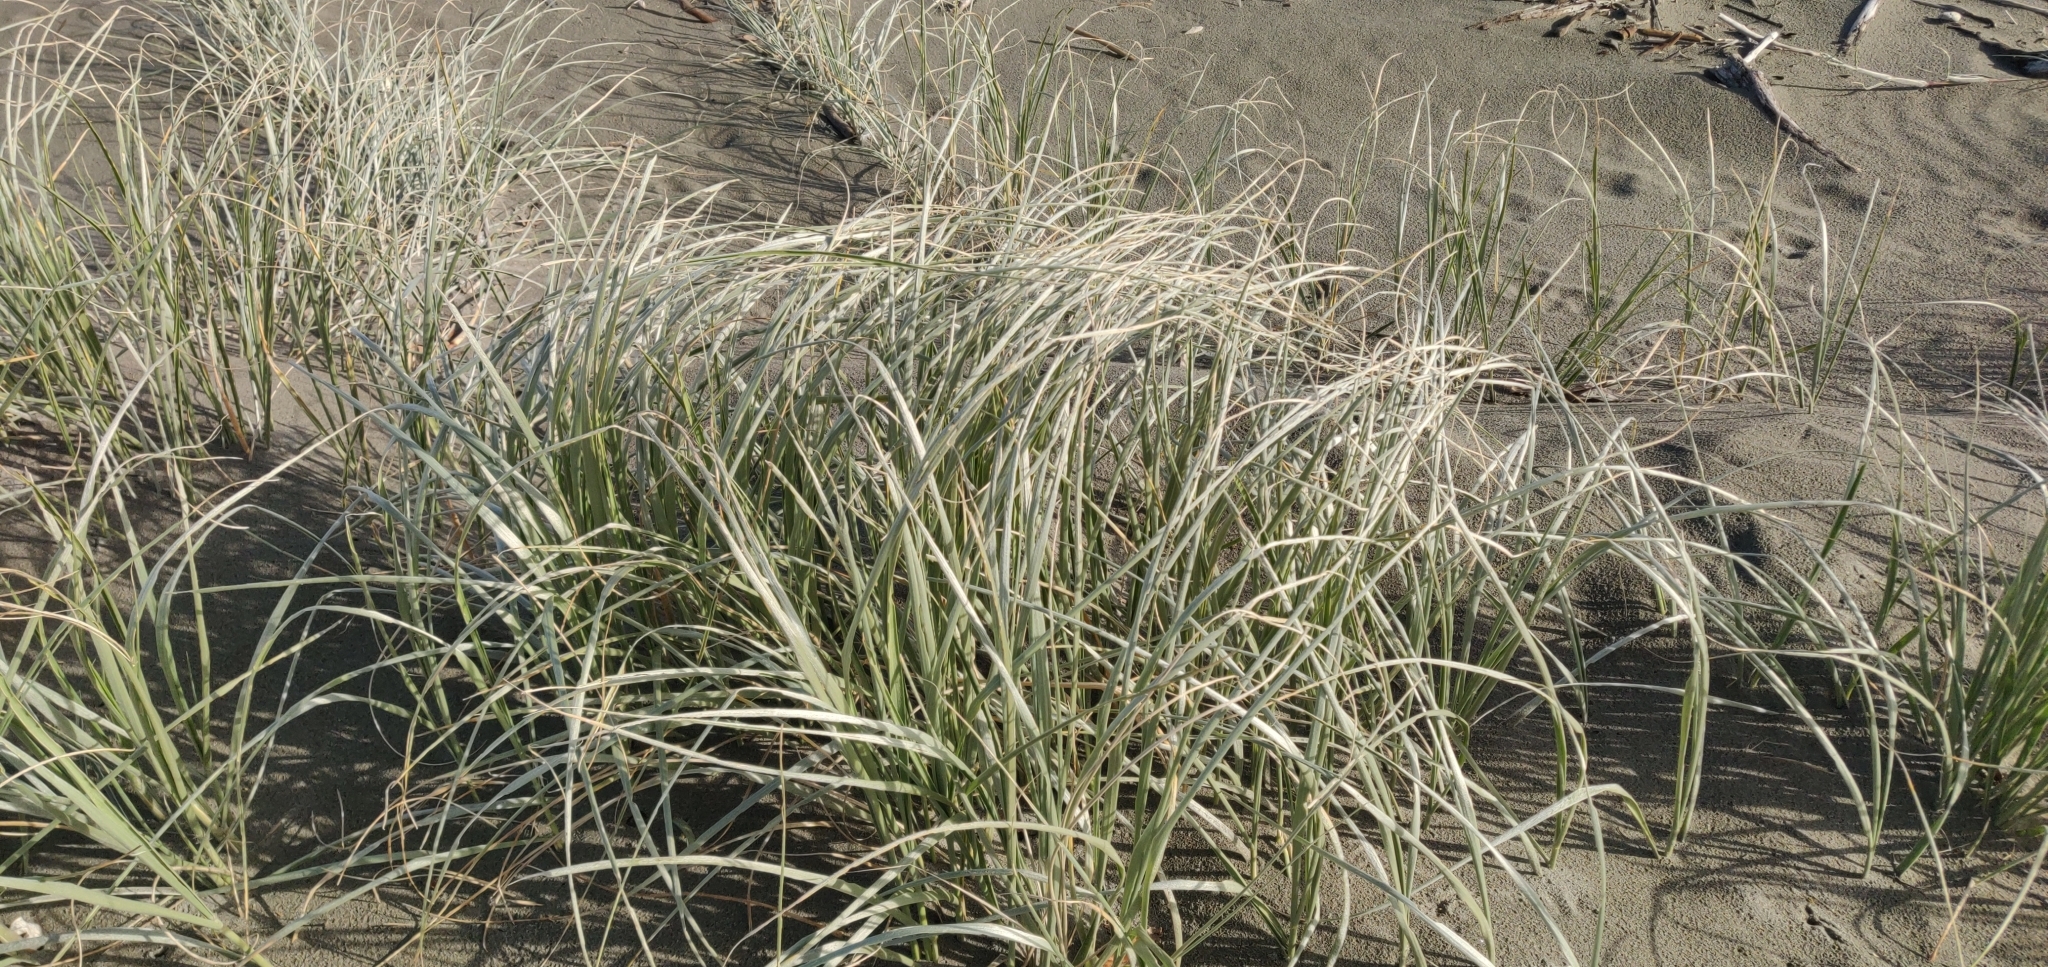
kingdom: Plantae
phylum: Tracheophyta
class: Liliopsida
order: Poales
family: Poaceae
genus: Spinifex
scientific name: Spinifex sericeus
